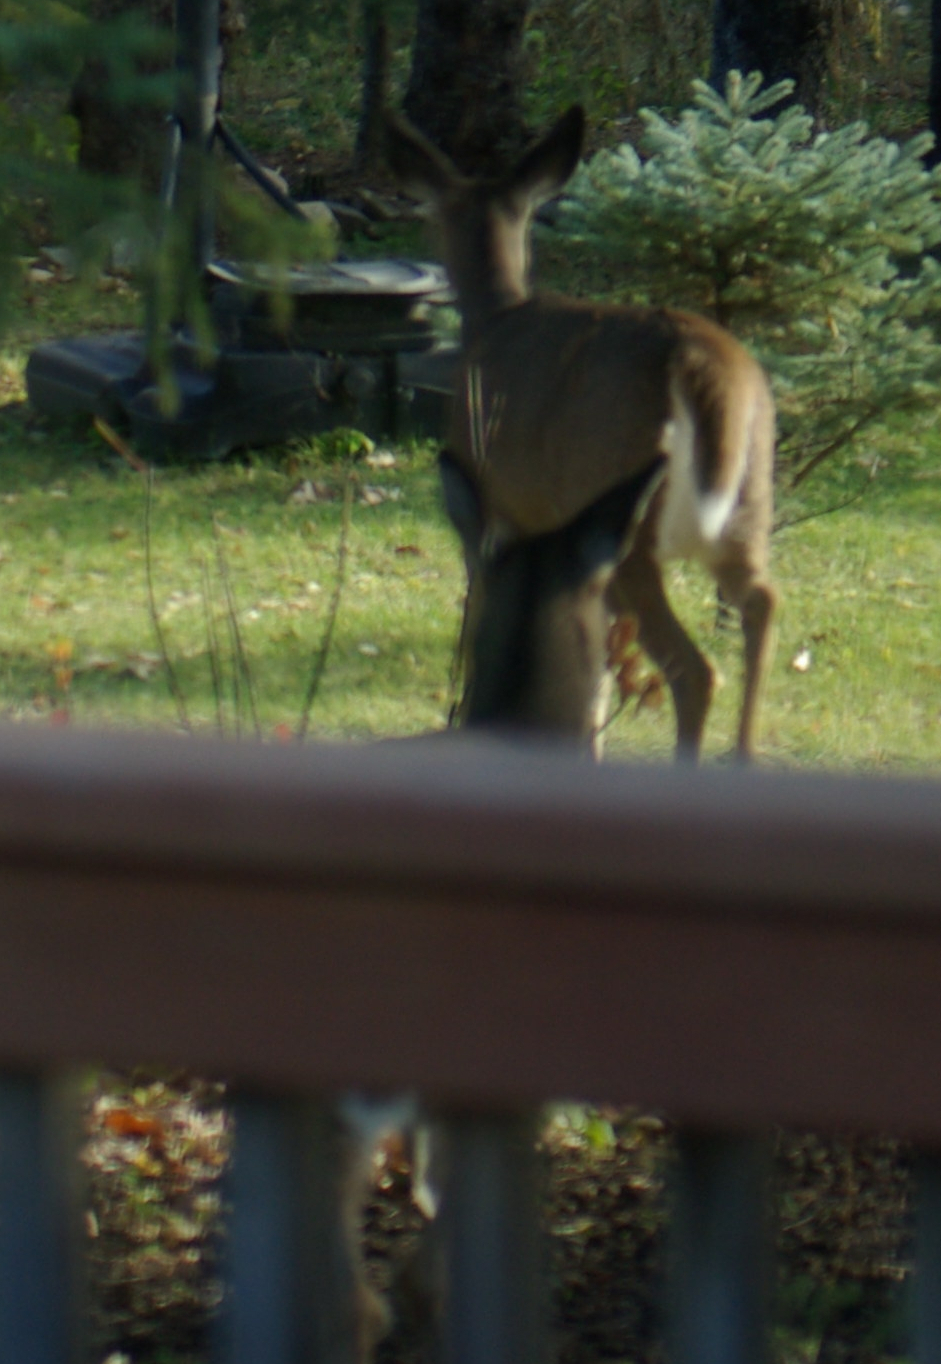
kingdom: Animalia
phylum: Chordata
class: Mammalia
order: Artiodactyla
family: Cervidae
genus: Odocoileus
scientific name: Odocoileus virginianus
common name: White-tailed deer
